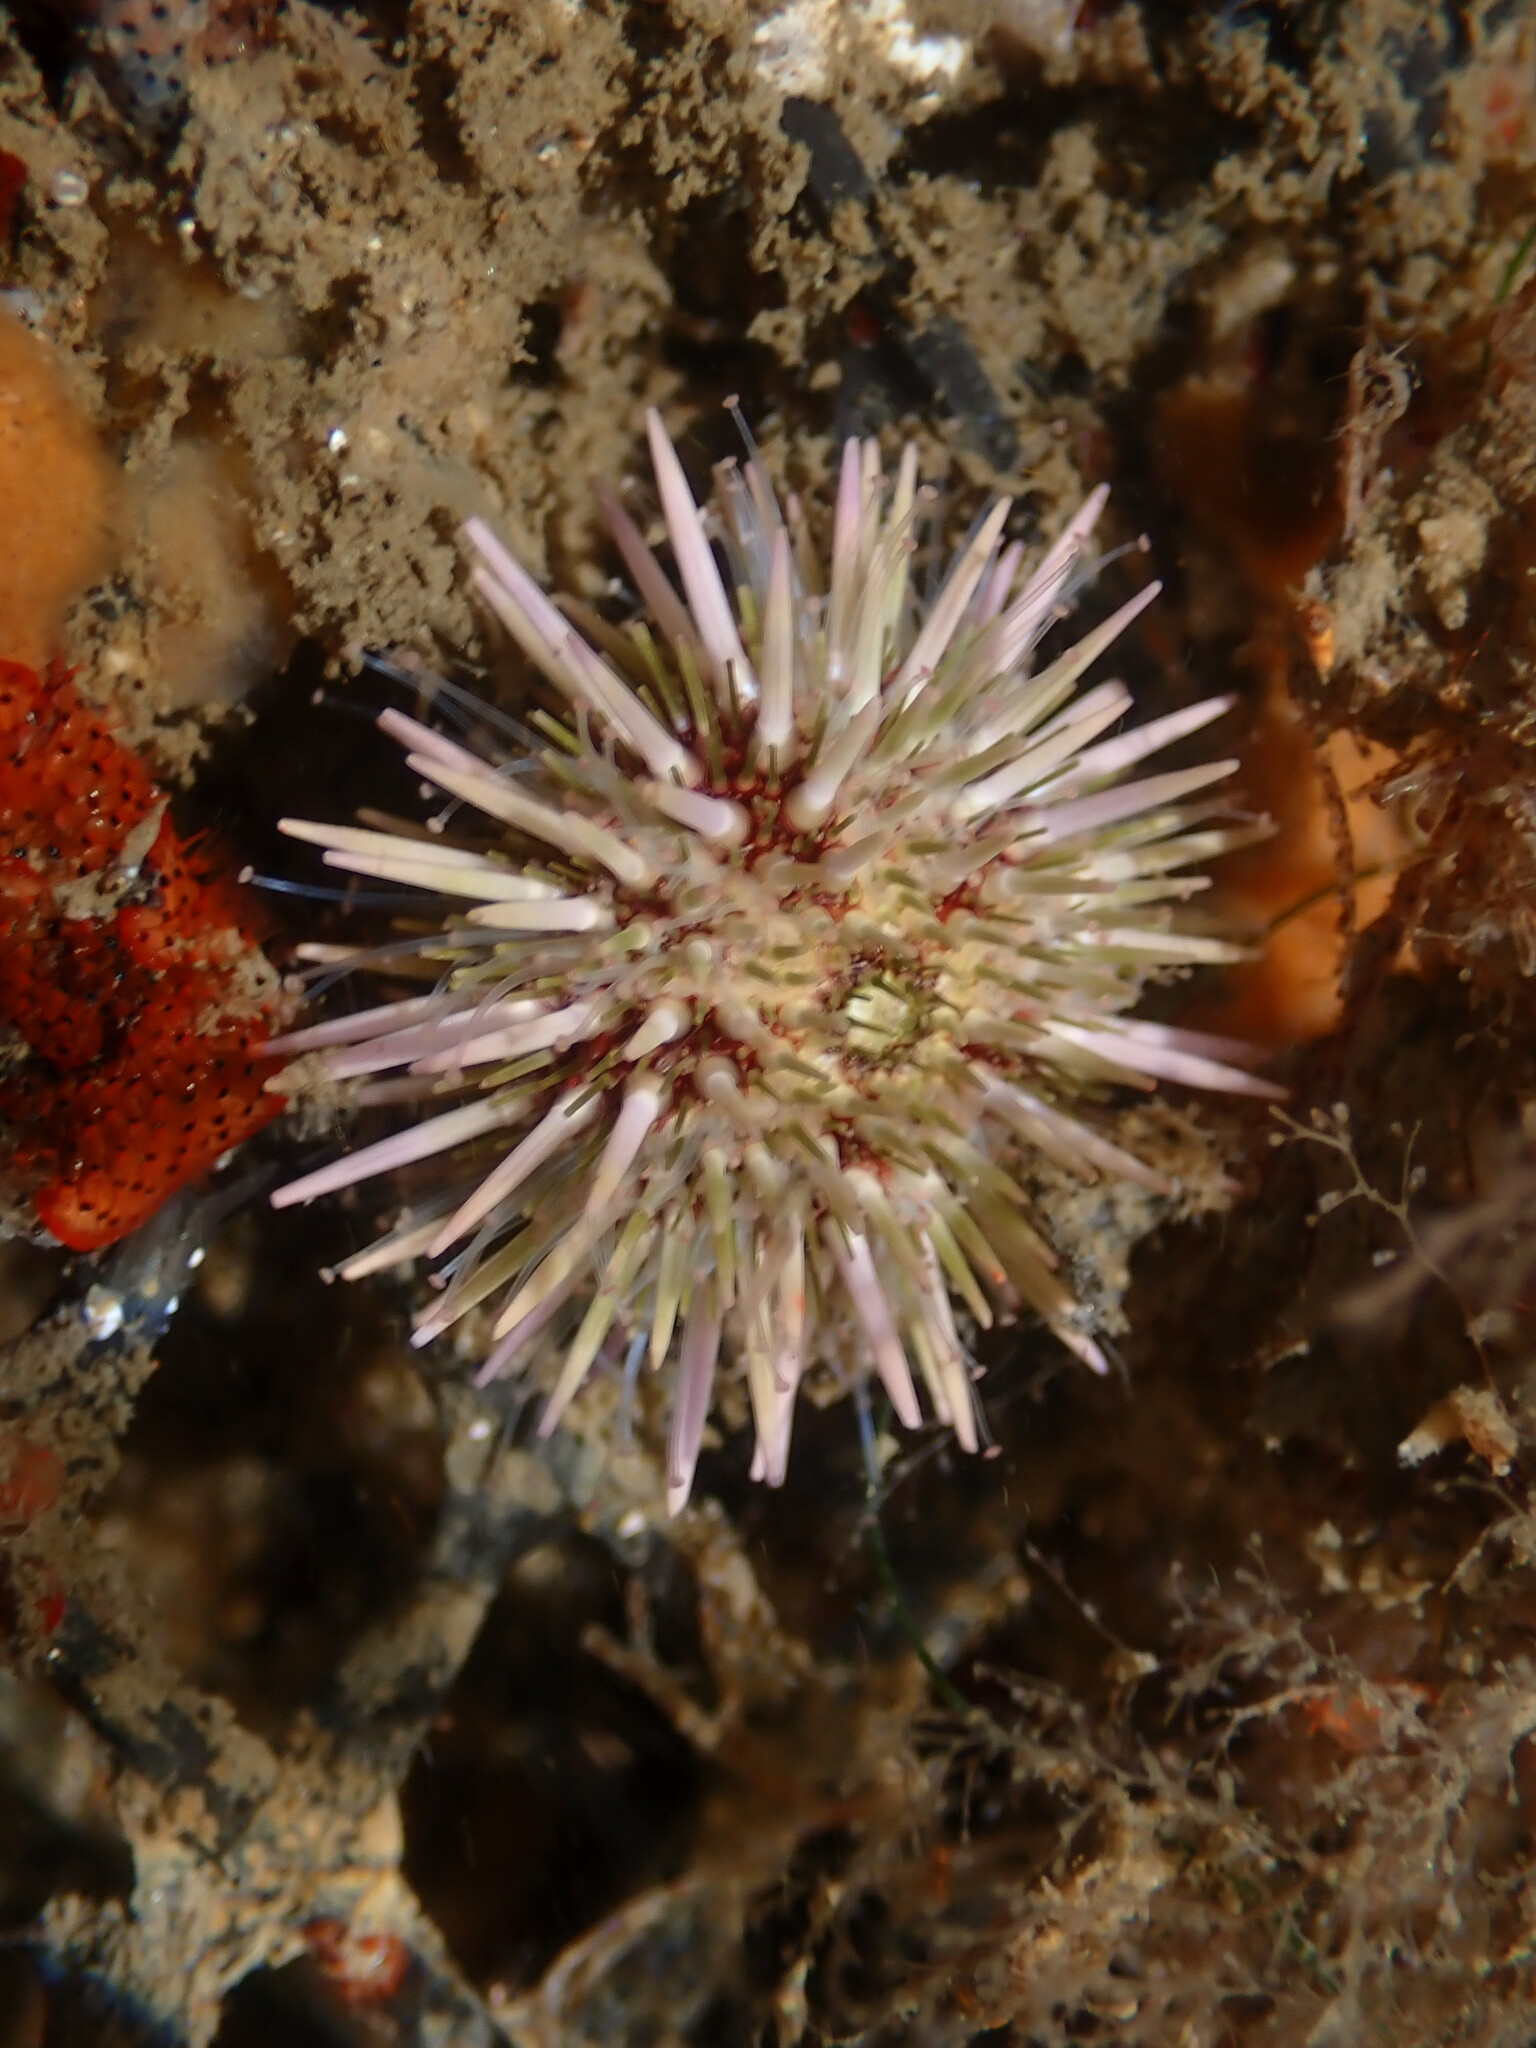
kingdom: Animalia
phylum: Echinodermata
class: Echinoidea
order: Camarodonta
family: Strongylocentrotidae
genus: Strongylocentrotus
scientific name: Strongylocentrotus purpuratus
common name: Purple sea urchin
